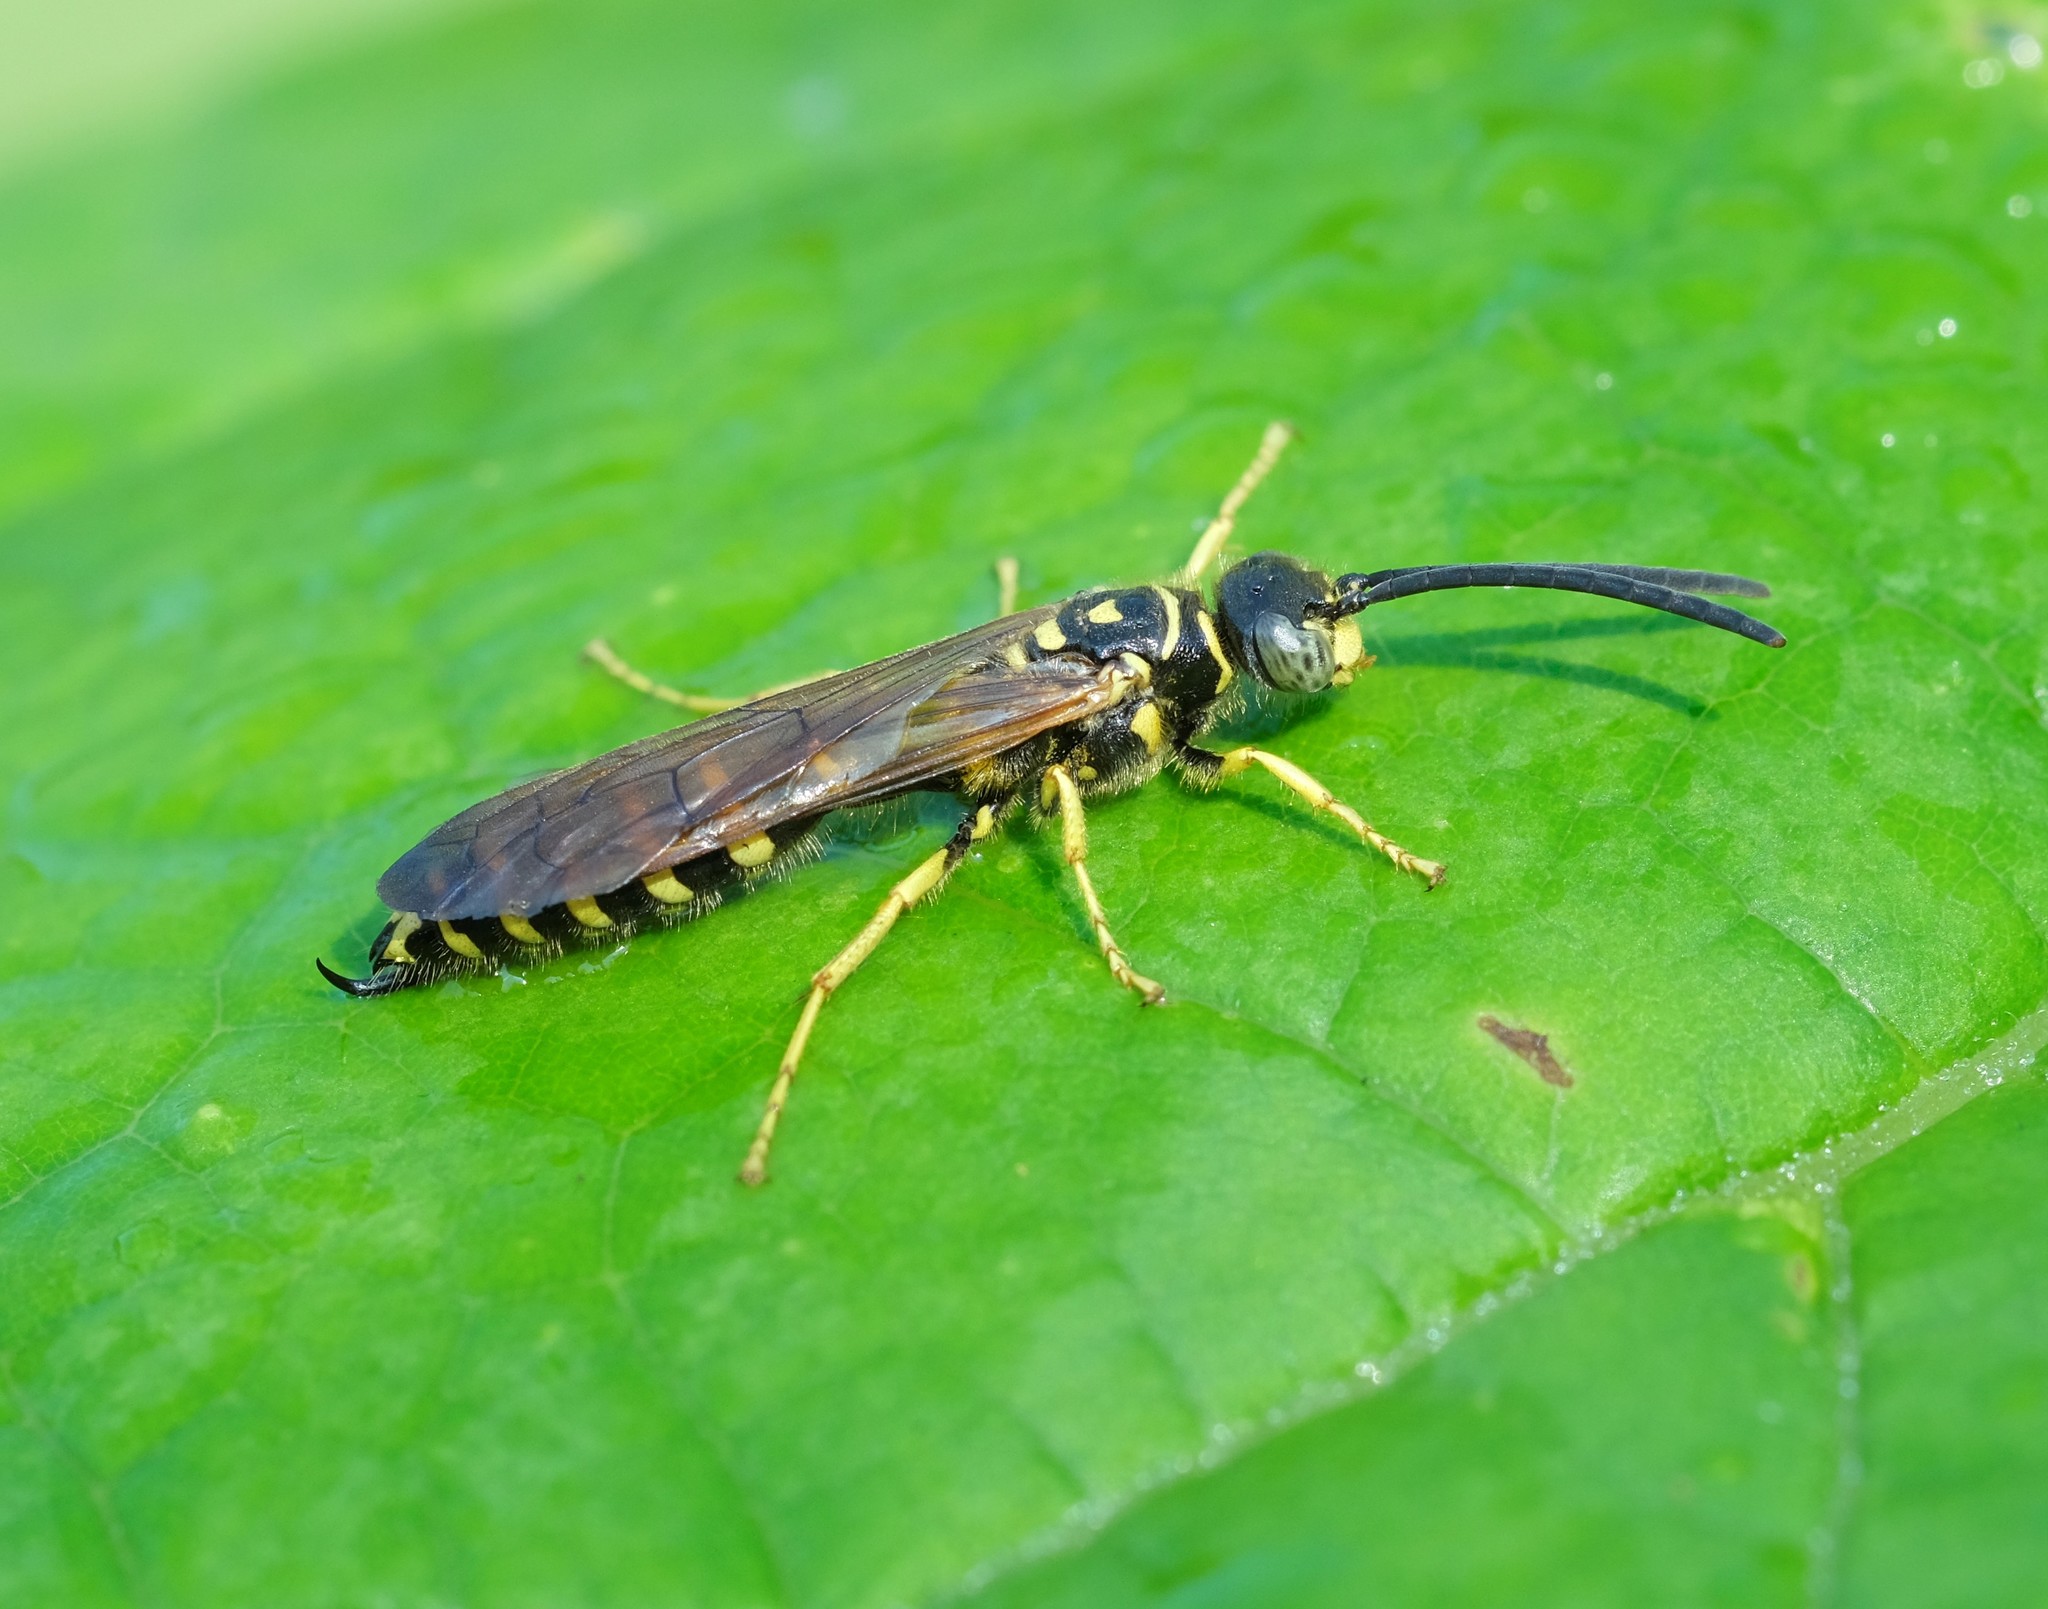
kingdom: Animalia
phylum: Arthropoda
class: Insecta
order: Hymenoptera
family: Tiphiidae
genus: Myzinum
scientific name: Myzinum quinquecinctum
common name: Five-banded thynnid wasp
